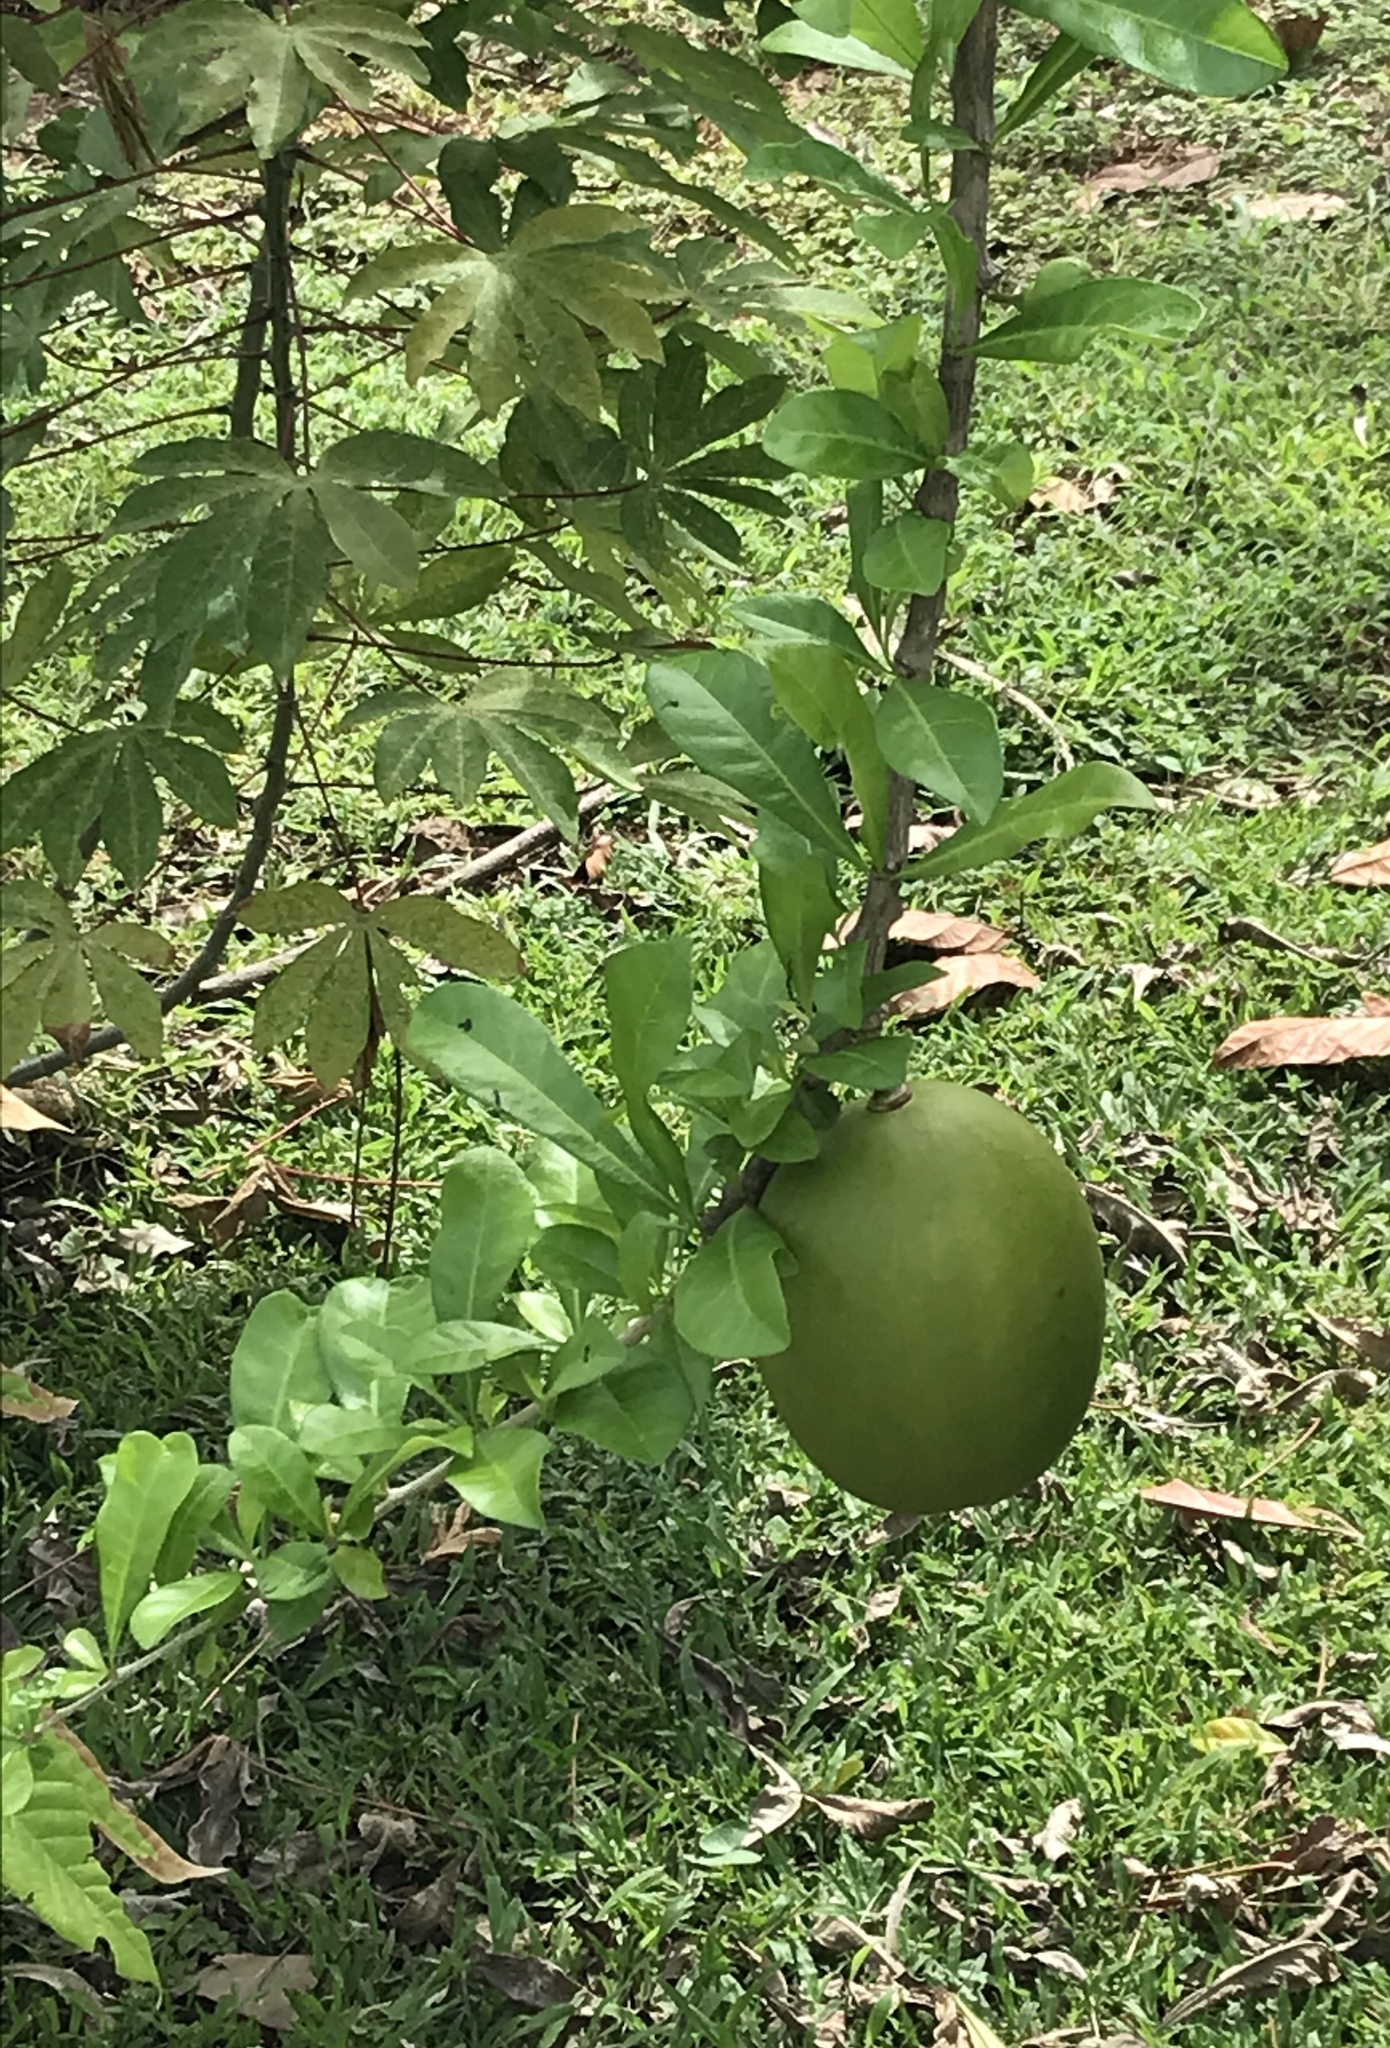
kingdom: Plantae
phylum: Tracheophyta
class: Magnoliopsida
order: Lamiales
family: Bignoniaceae
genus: Crescentia
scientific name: Crescentia cujete
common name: Calabash
